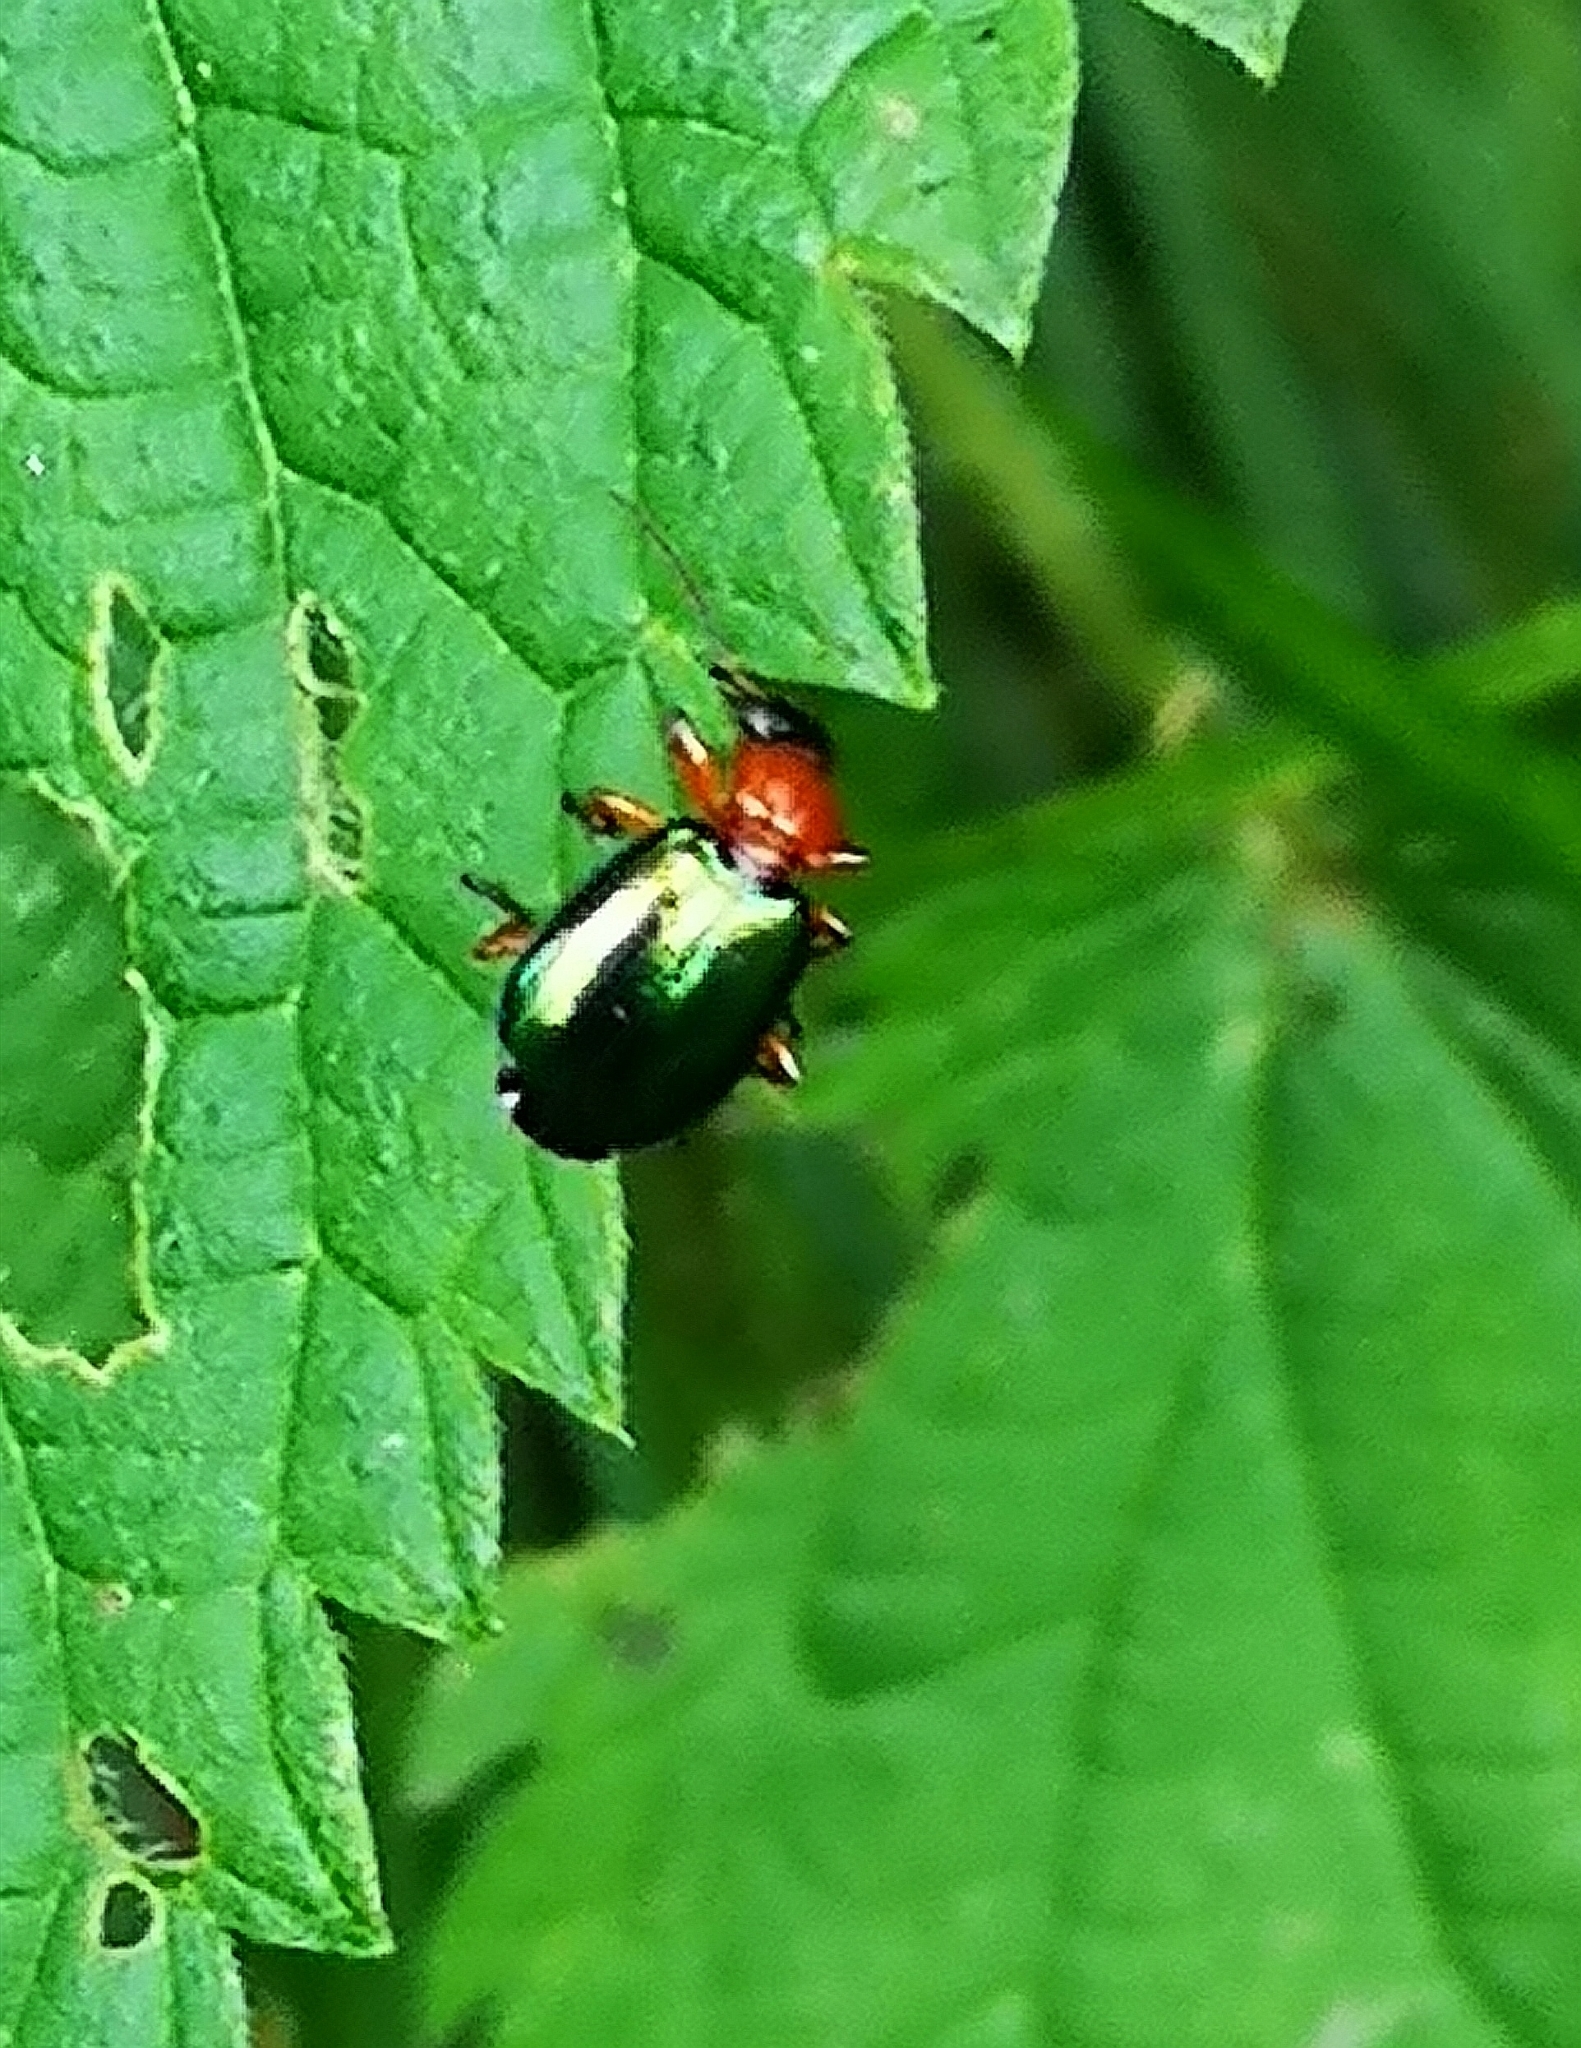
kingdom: Animalia
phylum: Arthropoda
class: Insecta
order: Coleoptera
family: Carabidae
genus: Lebia
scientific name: Lebia chlorocephala
